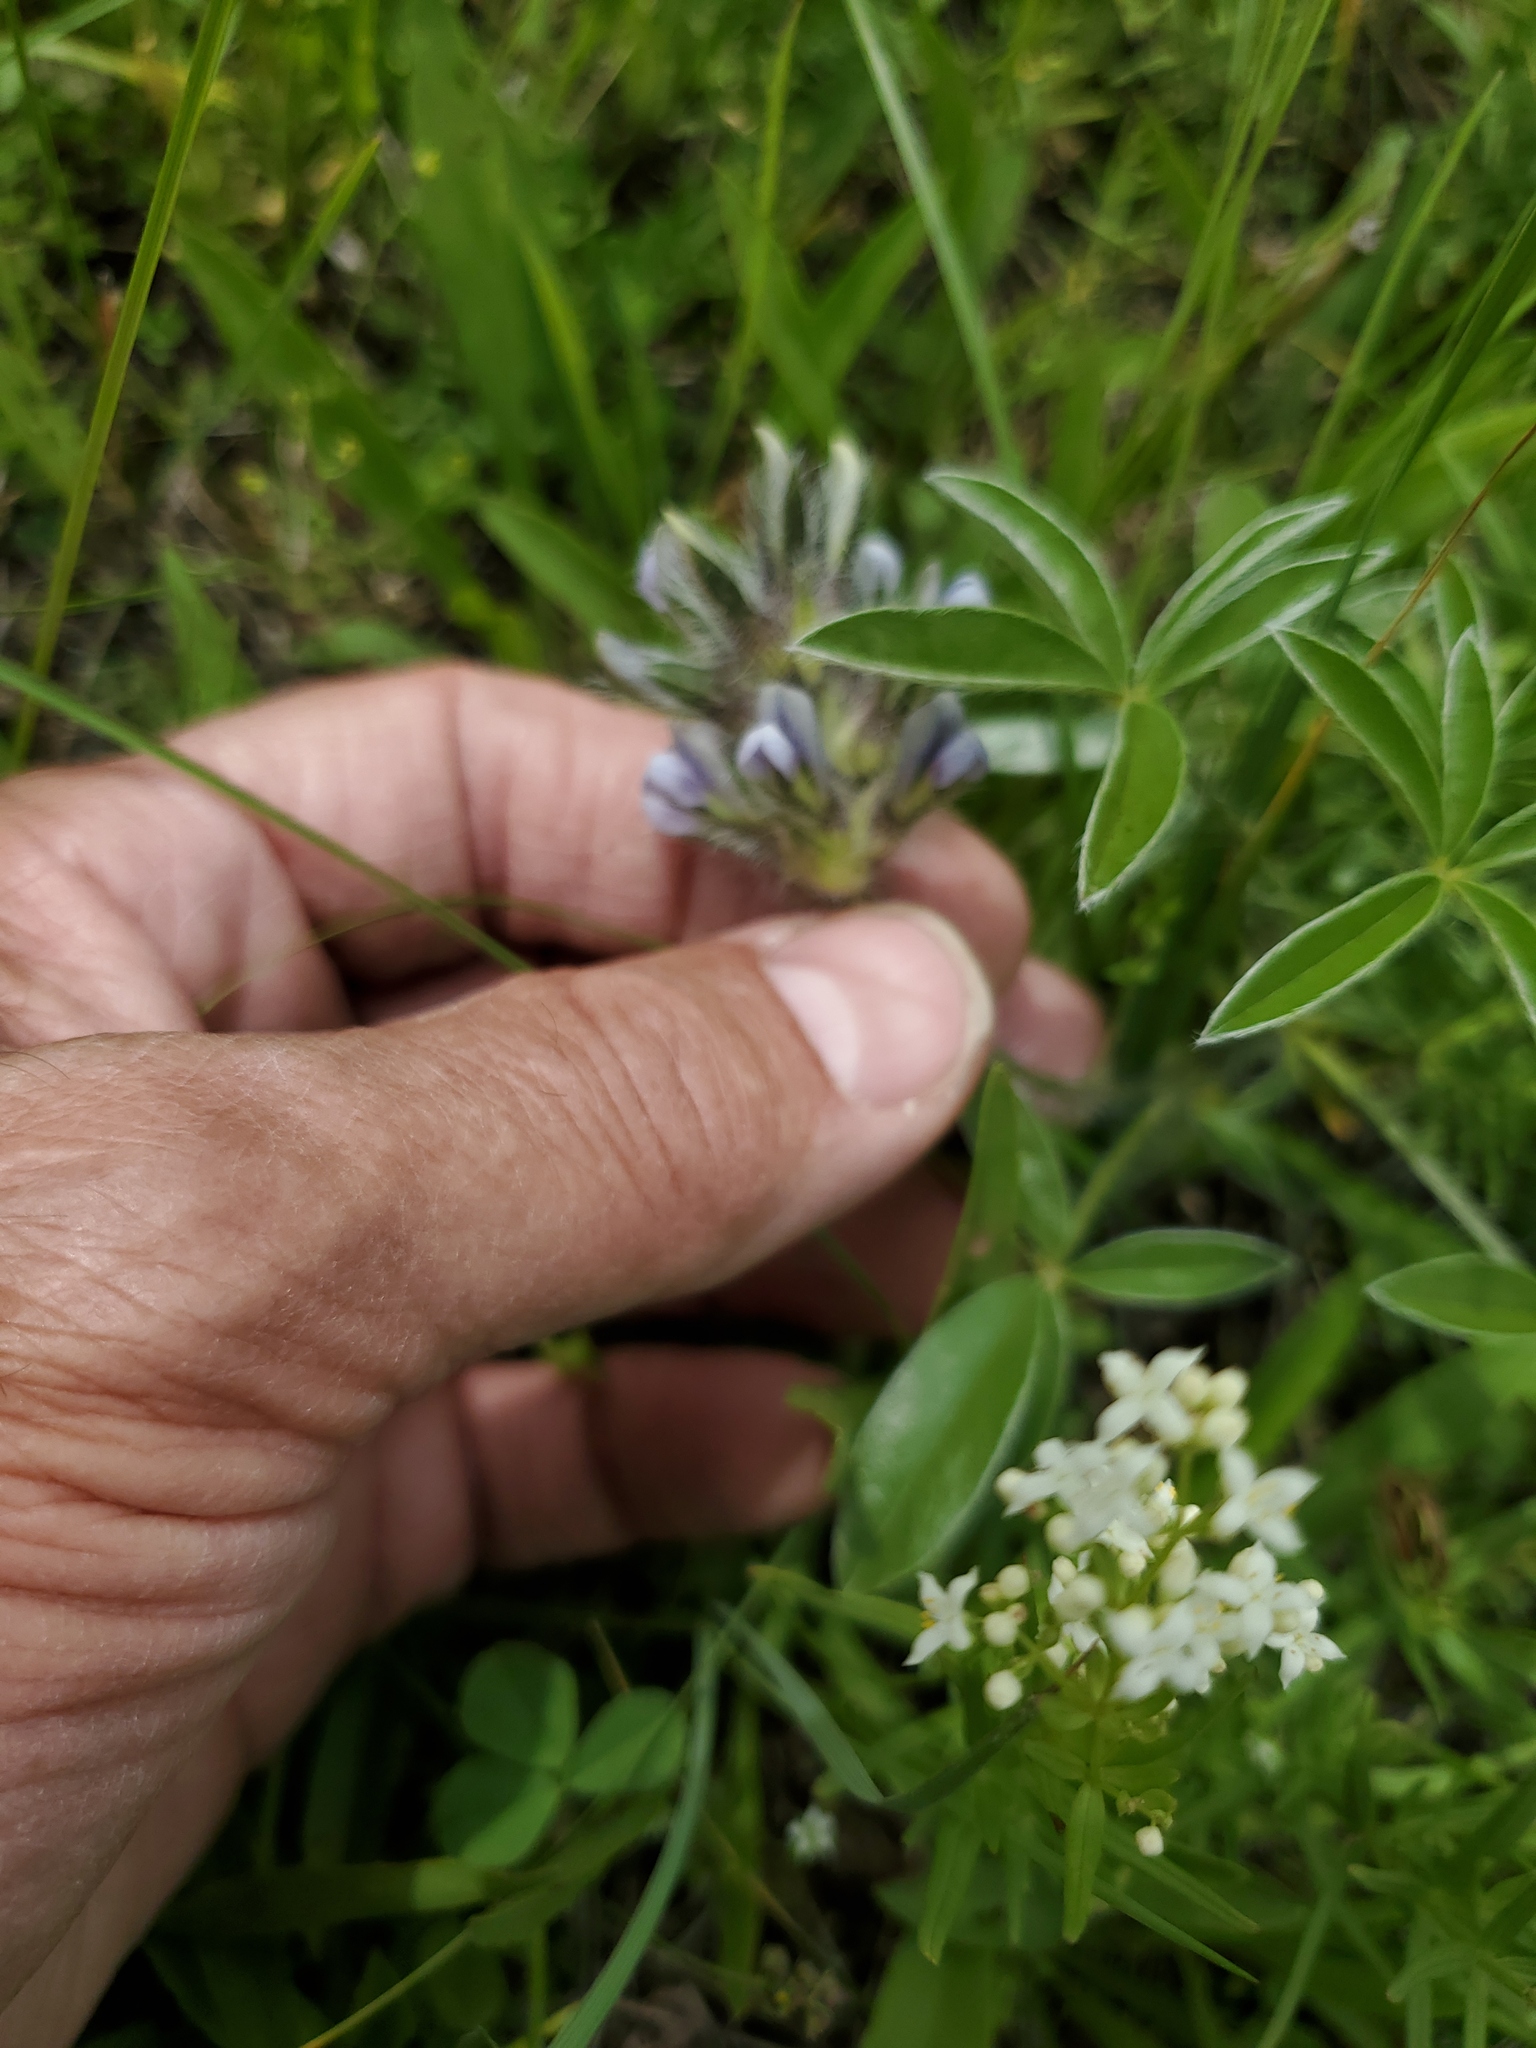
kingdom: Plantae
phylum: Tracheophyta
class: Magnoliopsida
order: Fabales
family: Fabaceae
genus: Pediomelum
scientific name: Pediomelum esculentum
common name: Indian-turnip
